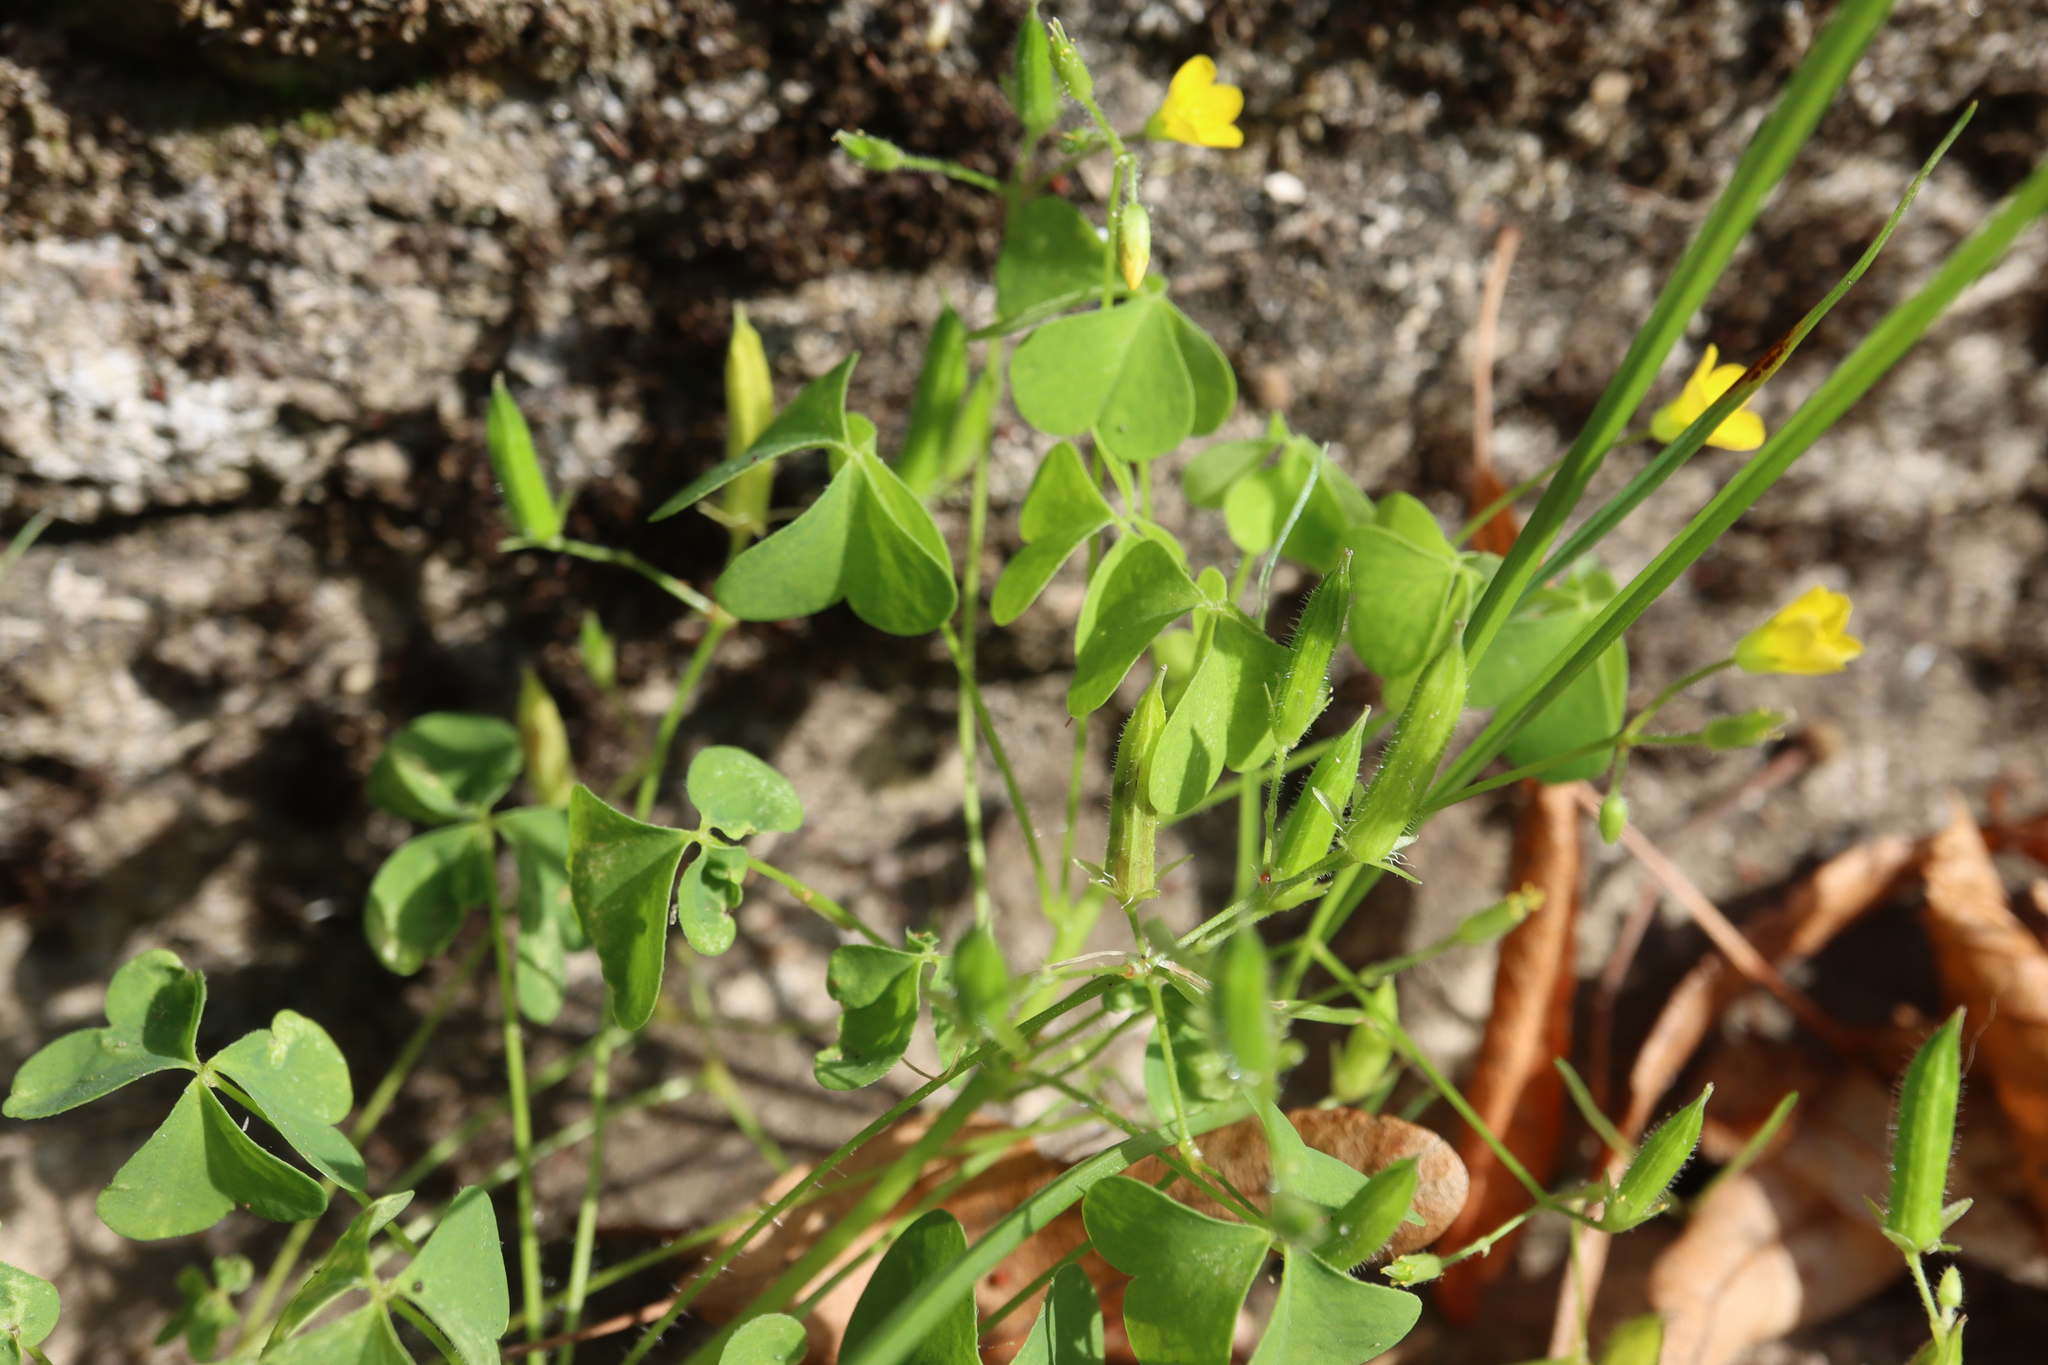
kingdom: Plantae
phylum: Tracheophyta
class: Magnoliopsida
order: Oxalidales
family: Oxalidaceae
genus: Oxalis
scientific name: Oxalis stricta
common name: Upright yellow-sorrel
